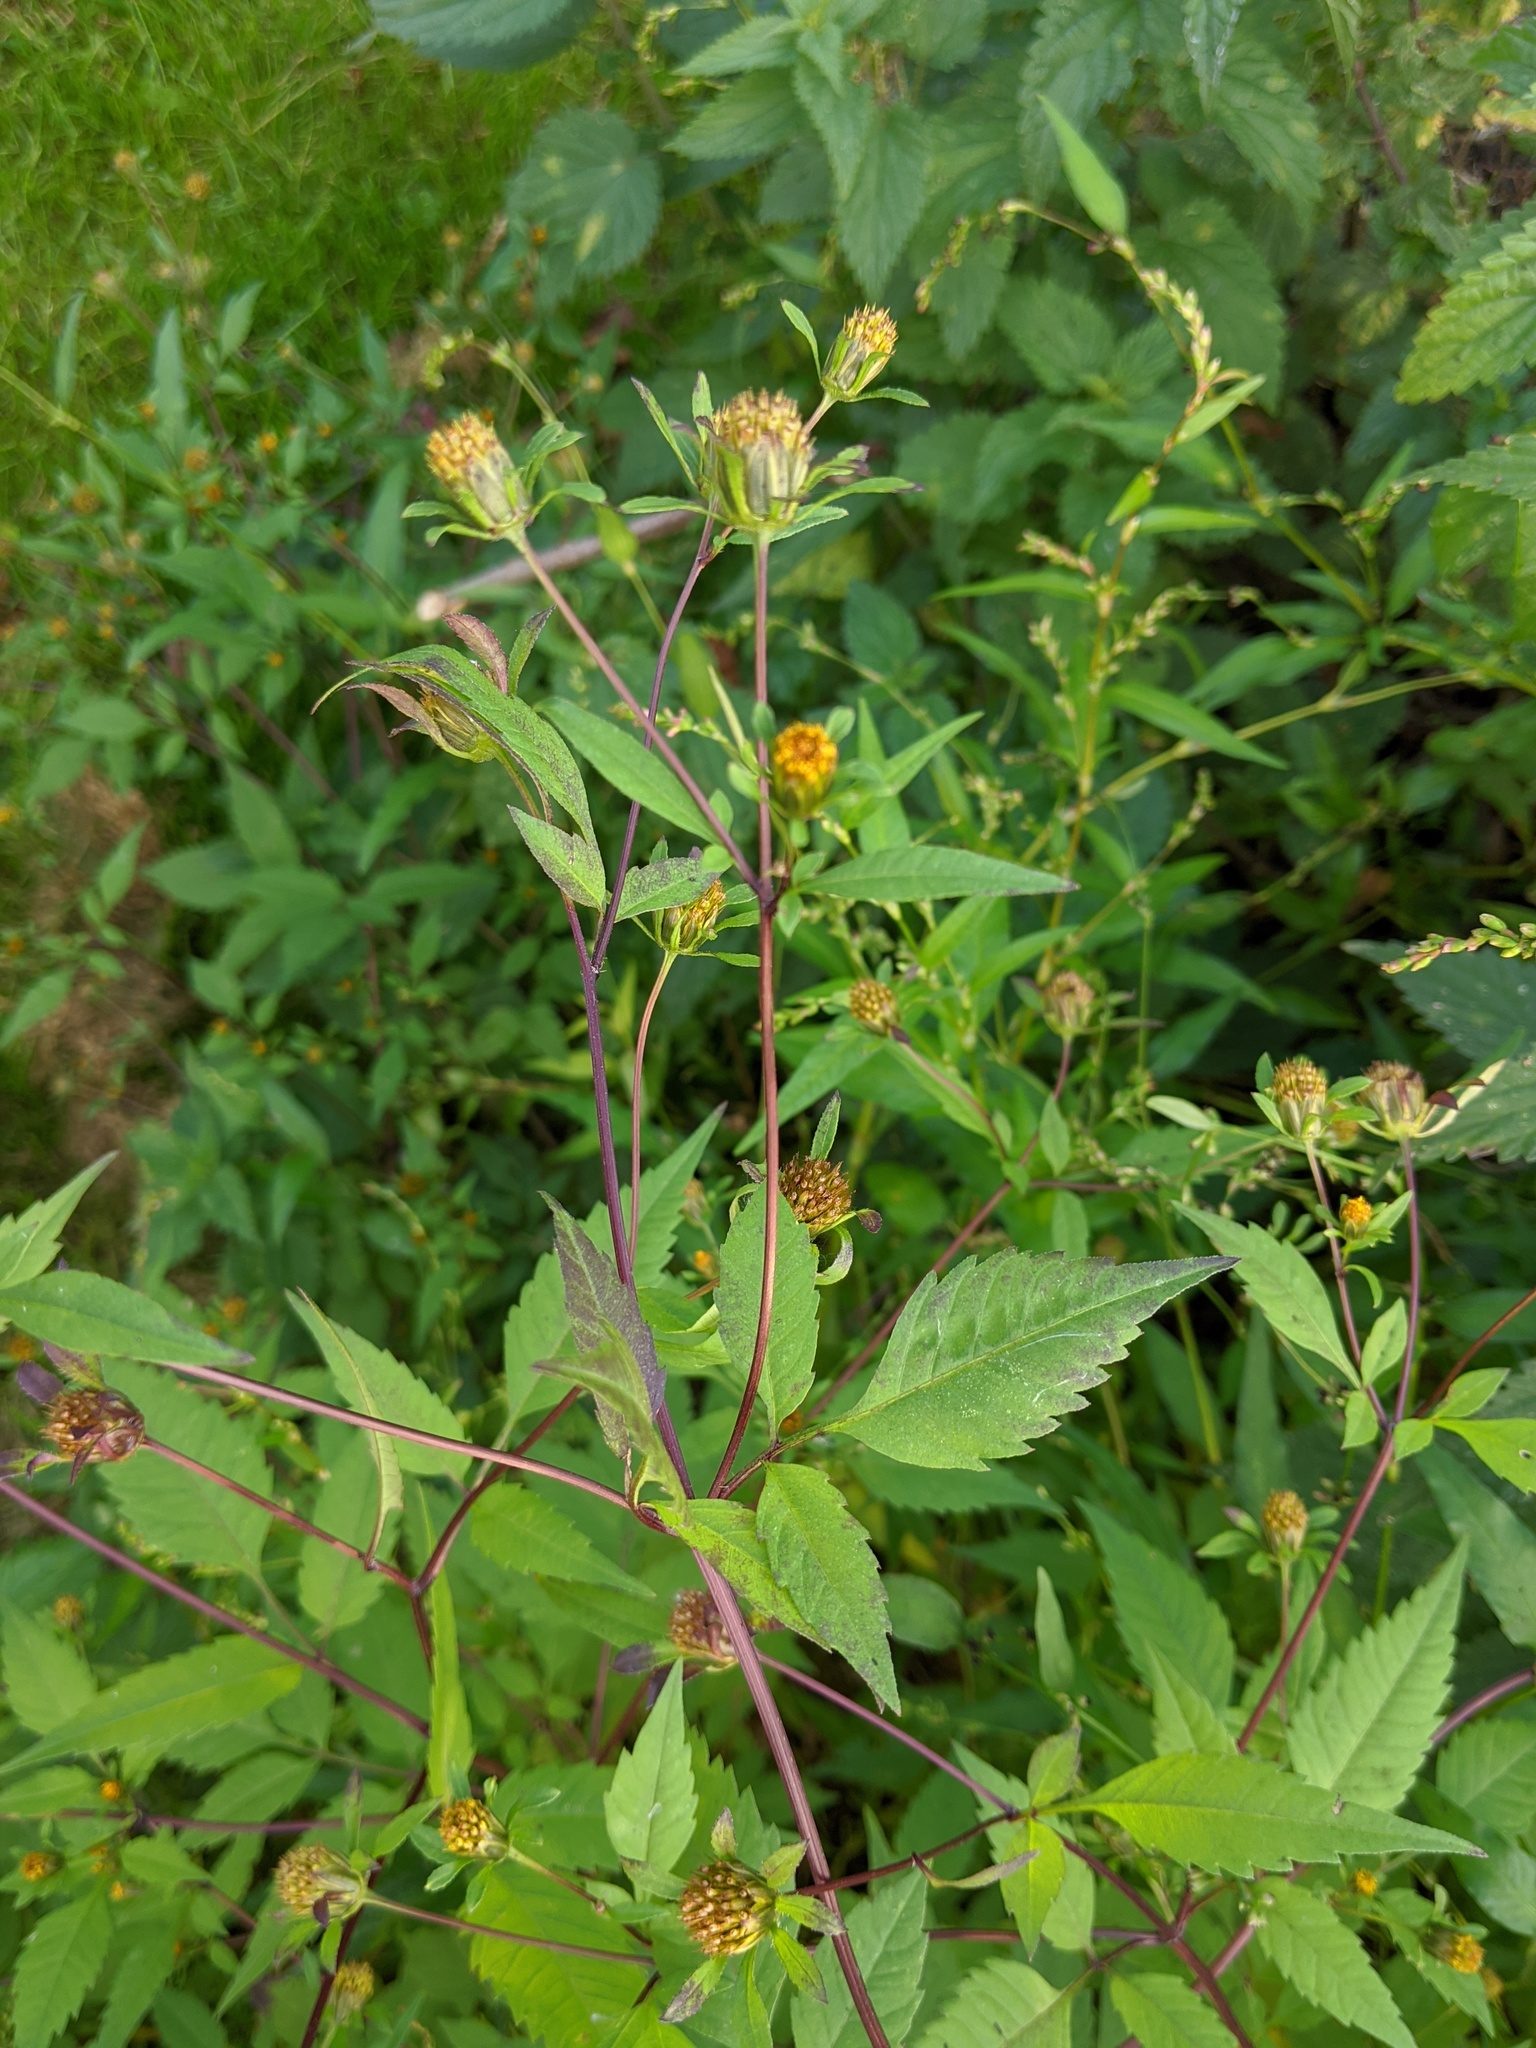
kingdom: Plantae
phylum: Tracheophyta
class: Magnoliopsida
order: Asterales
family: Asteraceae
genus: Bidens
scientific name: Bidens frondosa
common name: Beggarticks
